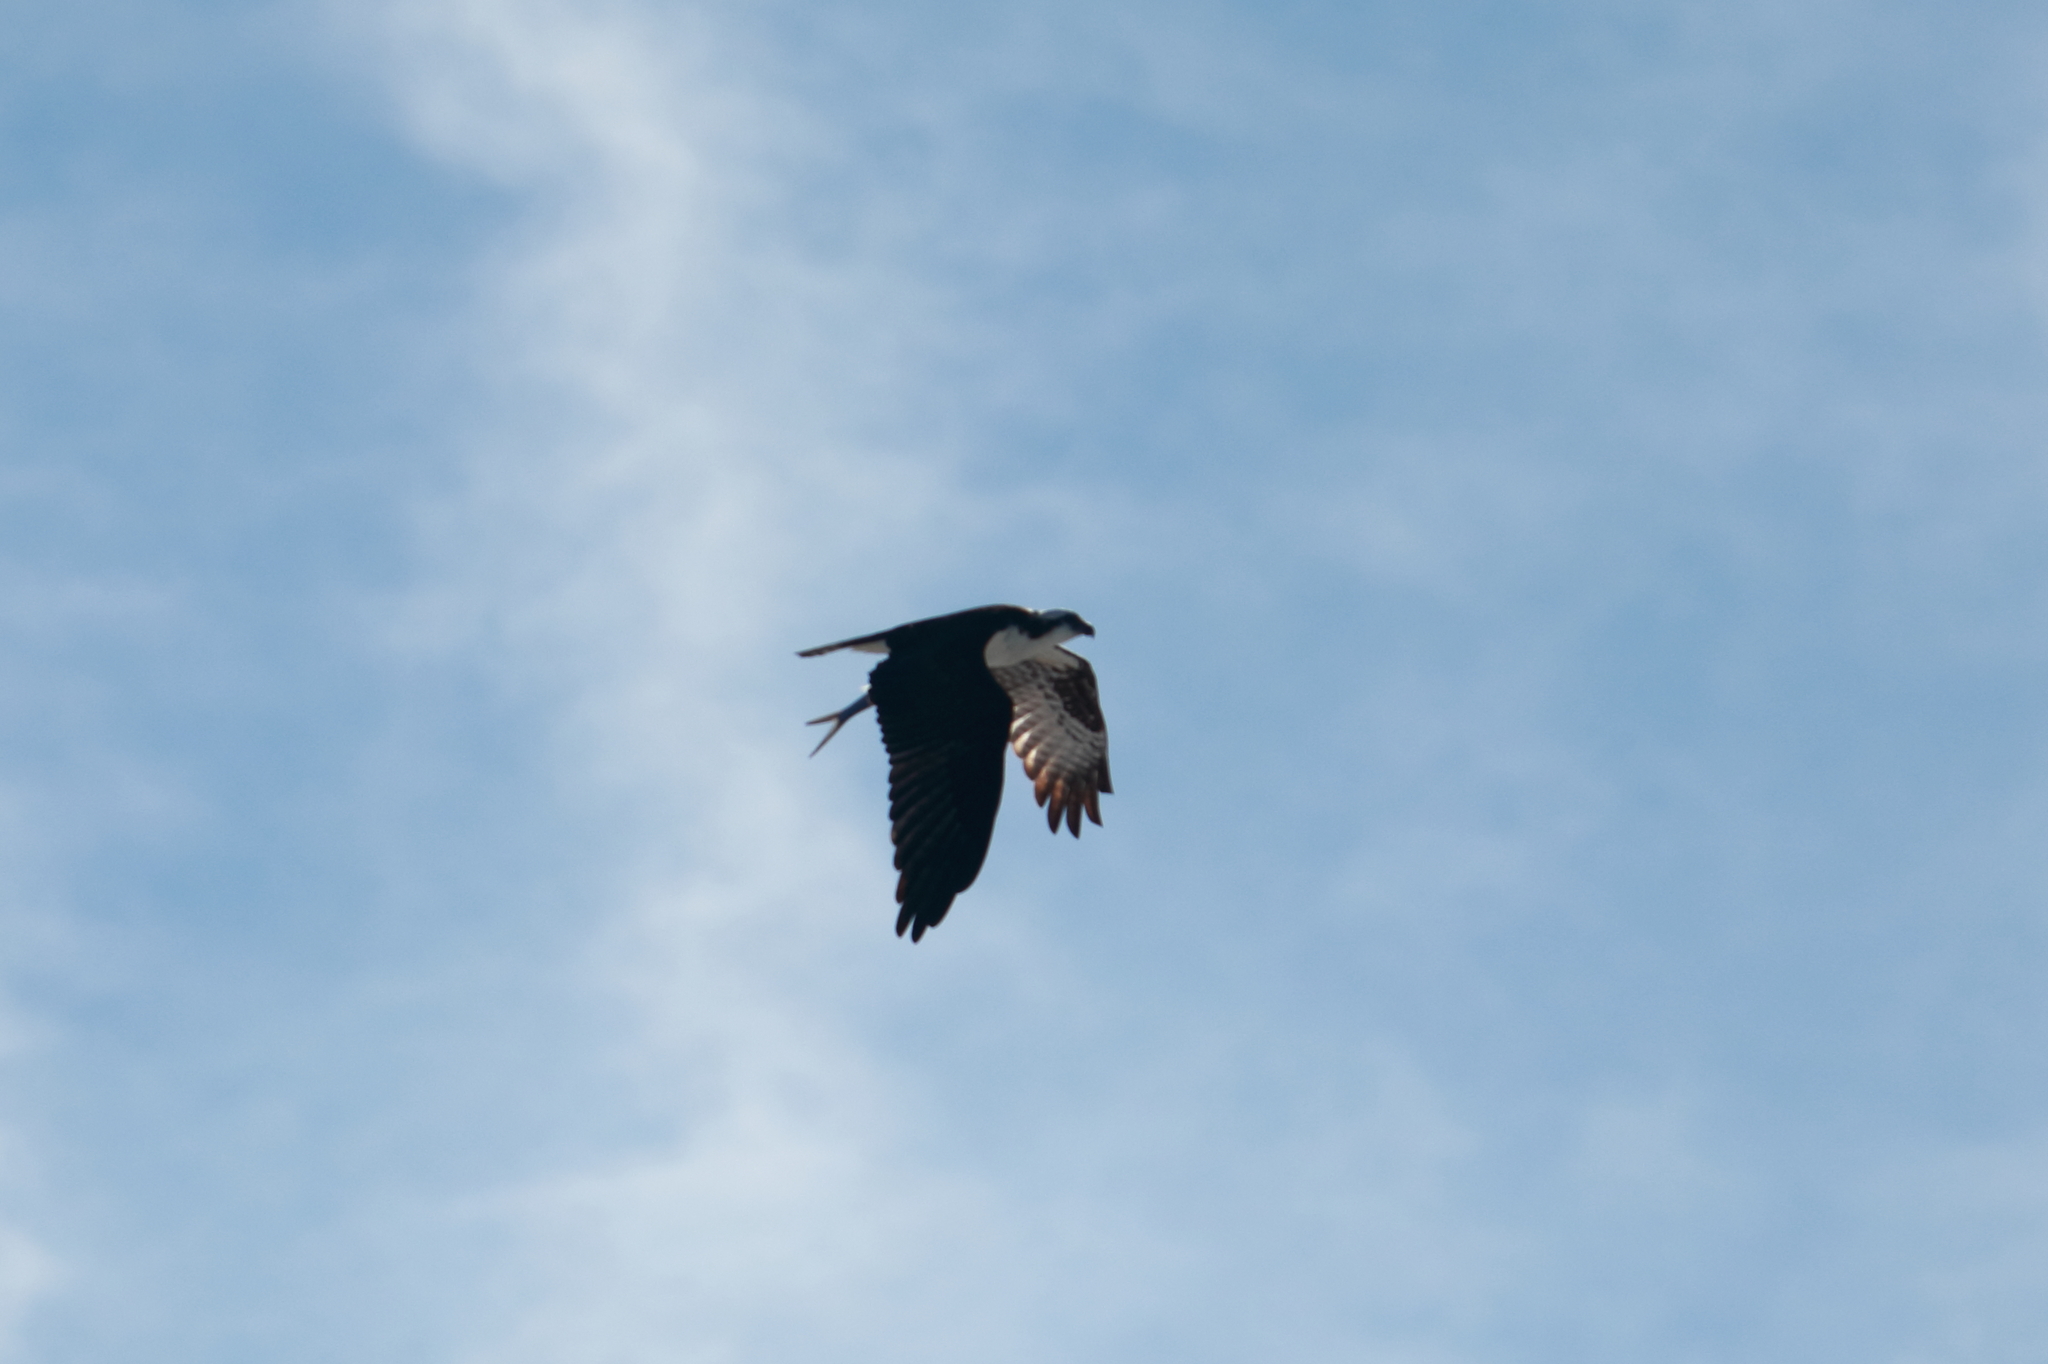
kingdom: Animalia
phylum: Chordata
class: Aves
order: Accipitriformes
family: Pandionidae
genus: Pandion
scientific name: Pandion haliaetus
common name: Osprey
